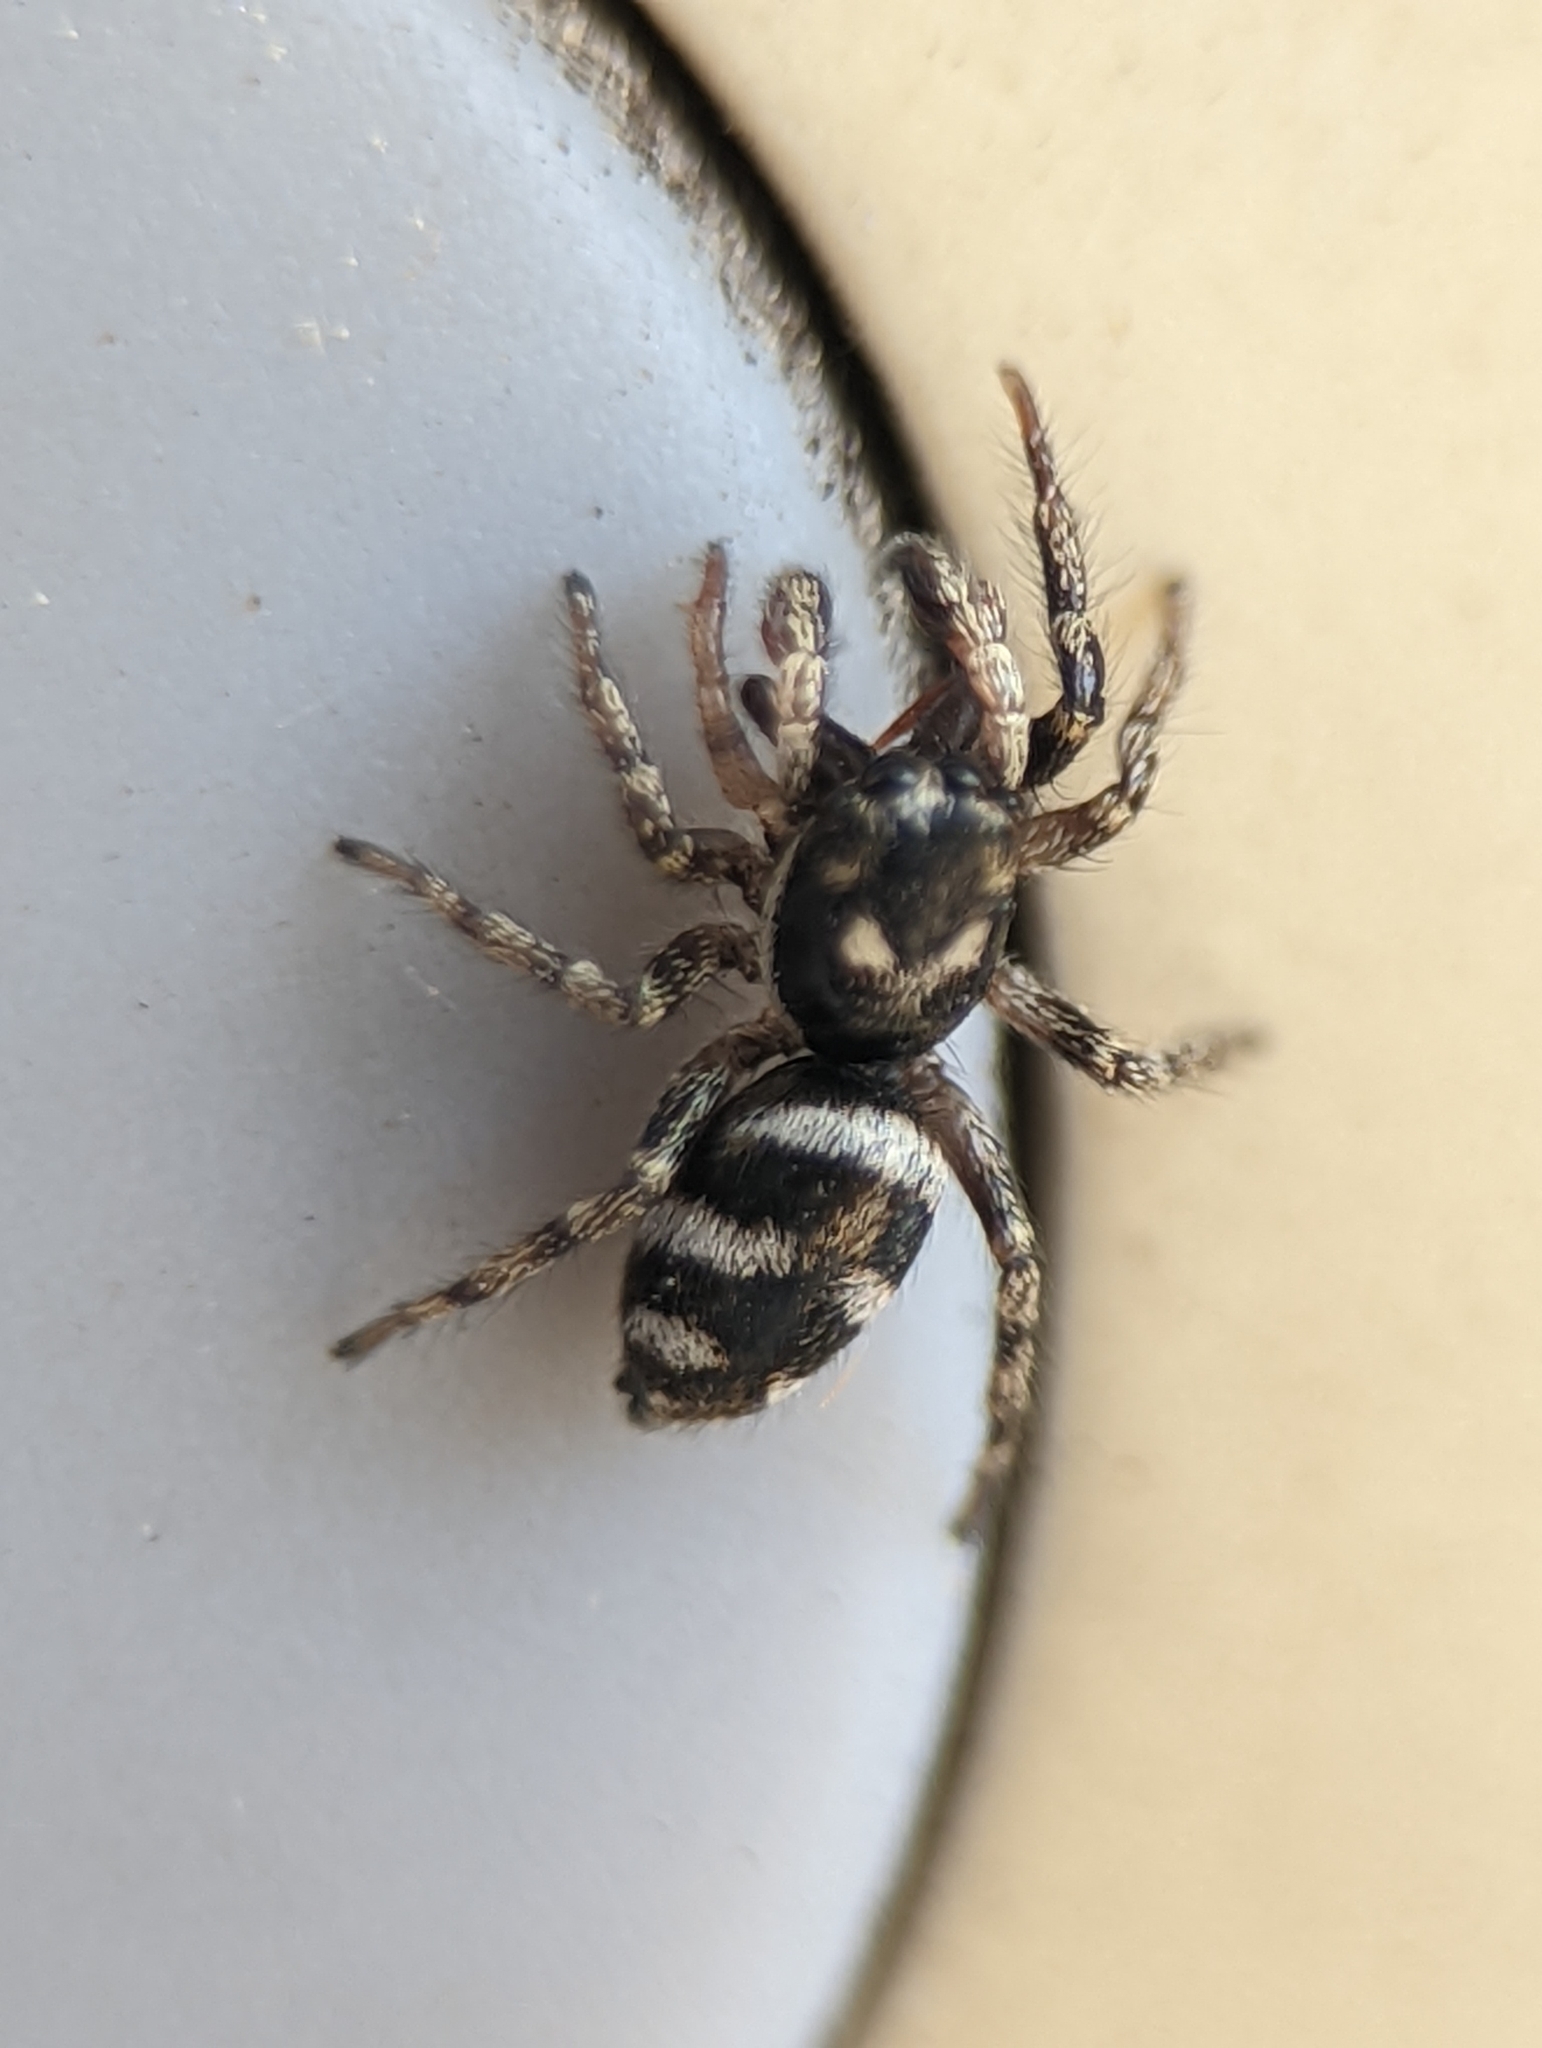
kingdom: Animalia
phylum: Arthropoda
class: Arachnida
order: Araneae
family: Salticidae
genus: Salticus
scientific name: Salticus scenicus
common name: Zebra jumper
